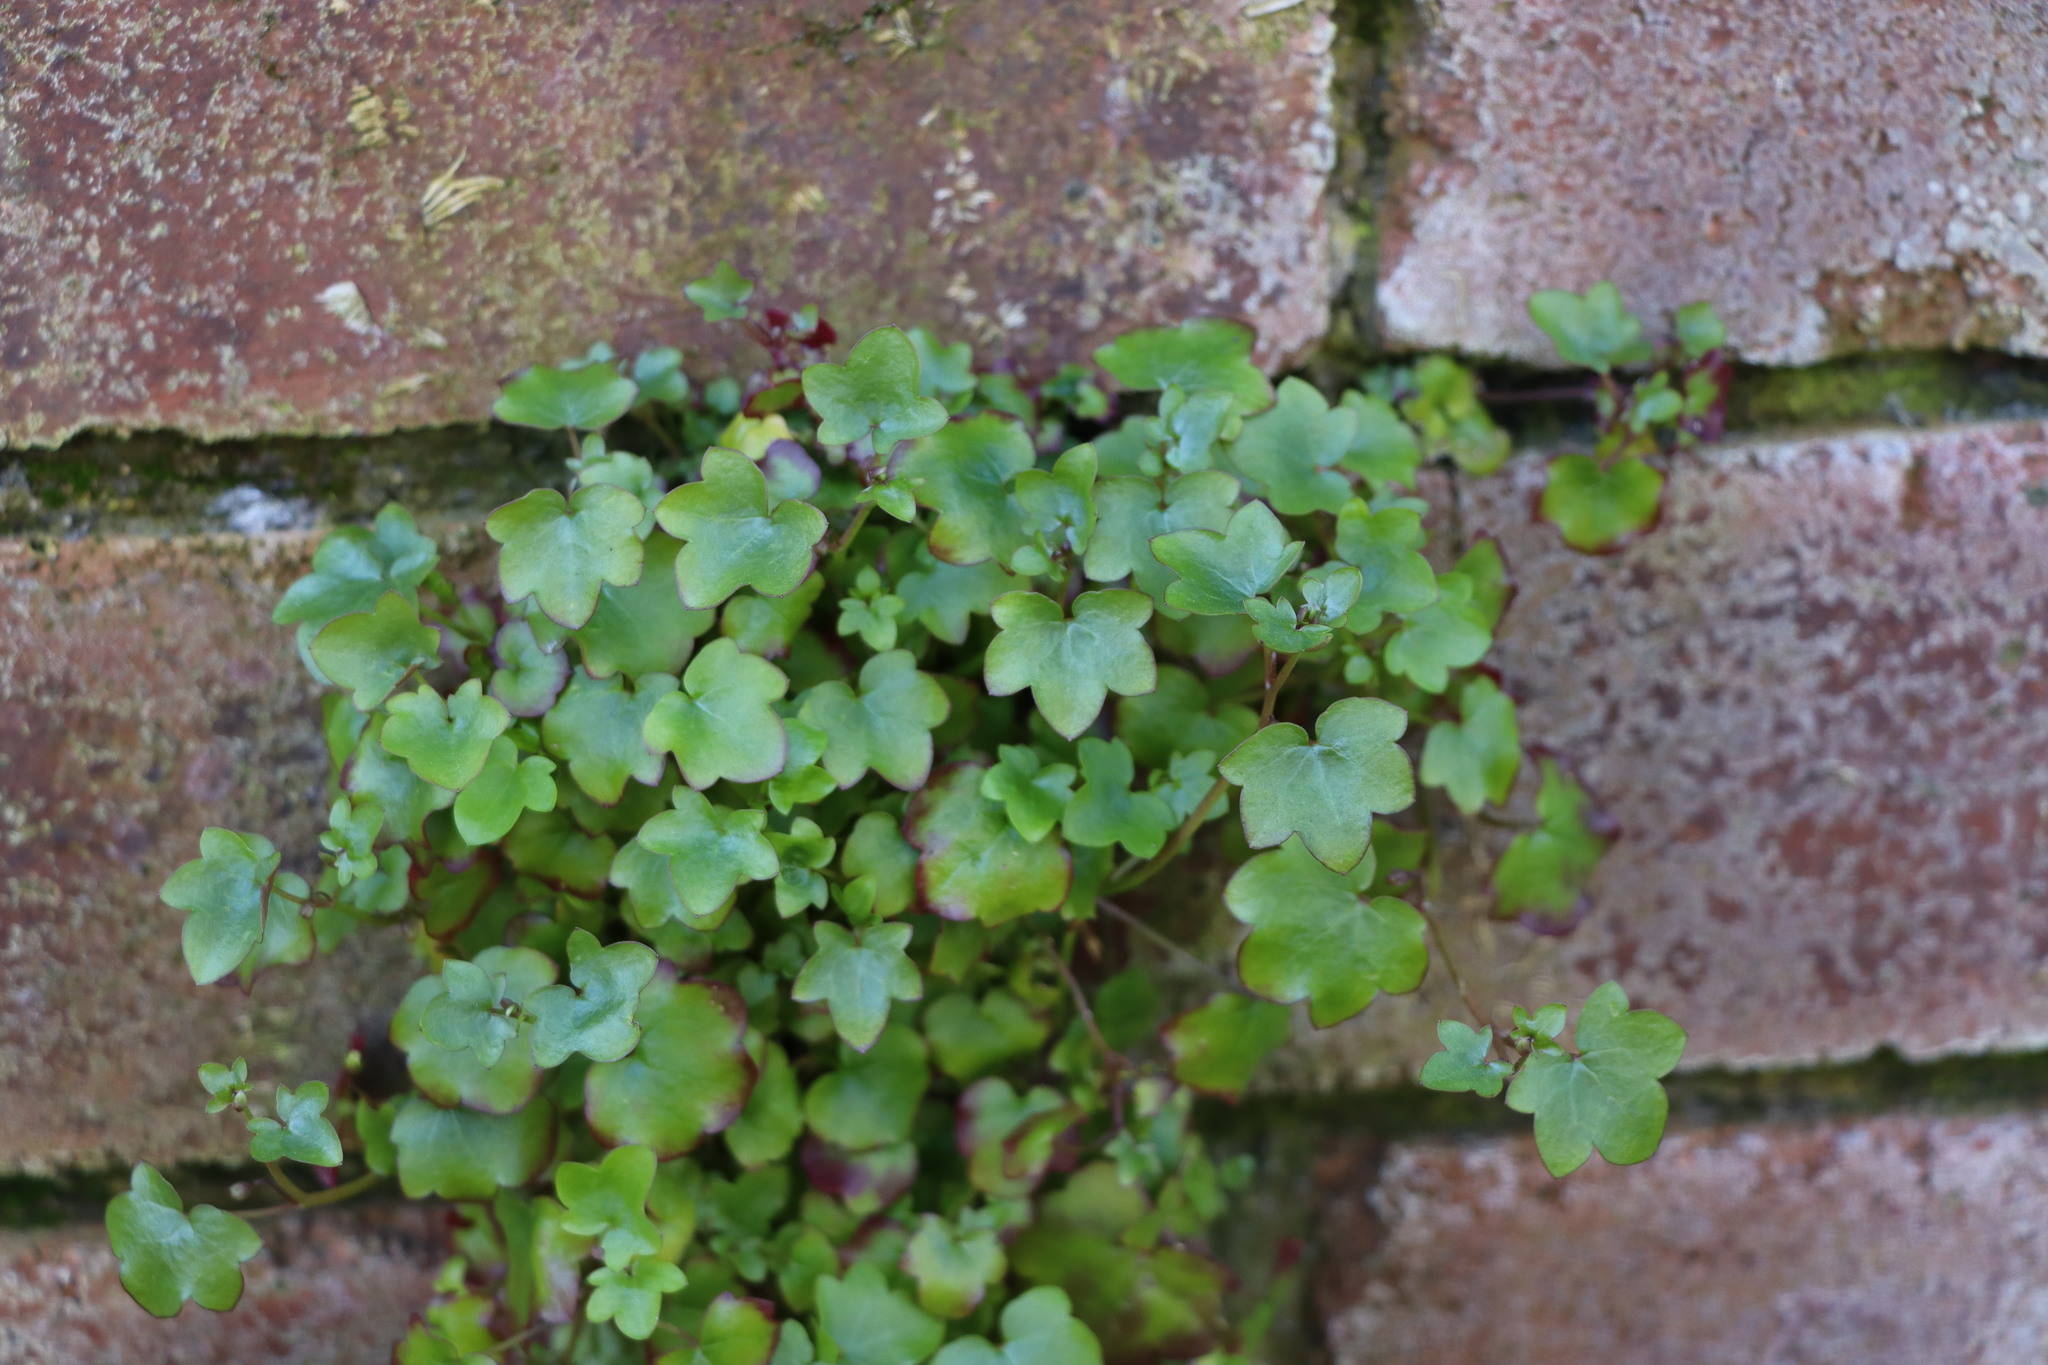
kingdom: Plantae
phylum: Tracheophyta
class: Magnoliopsida
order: Lamiales
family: Plantaginaceae
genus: Cymbalaria
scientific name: Cymbalaria muralis
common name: Ivy-leaved toadflax
